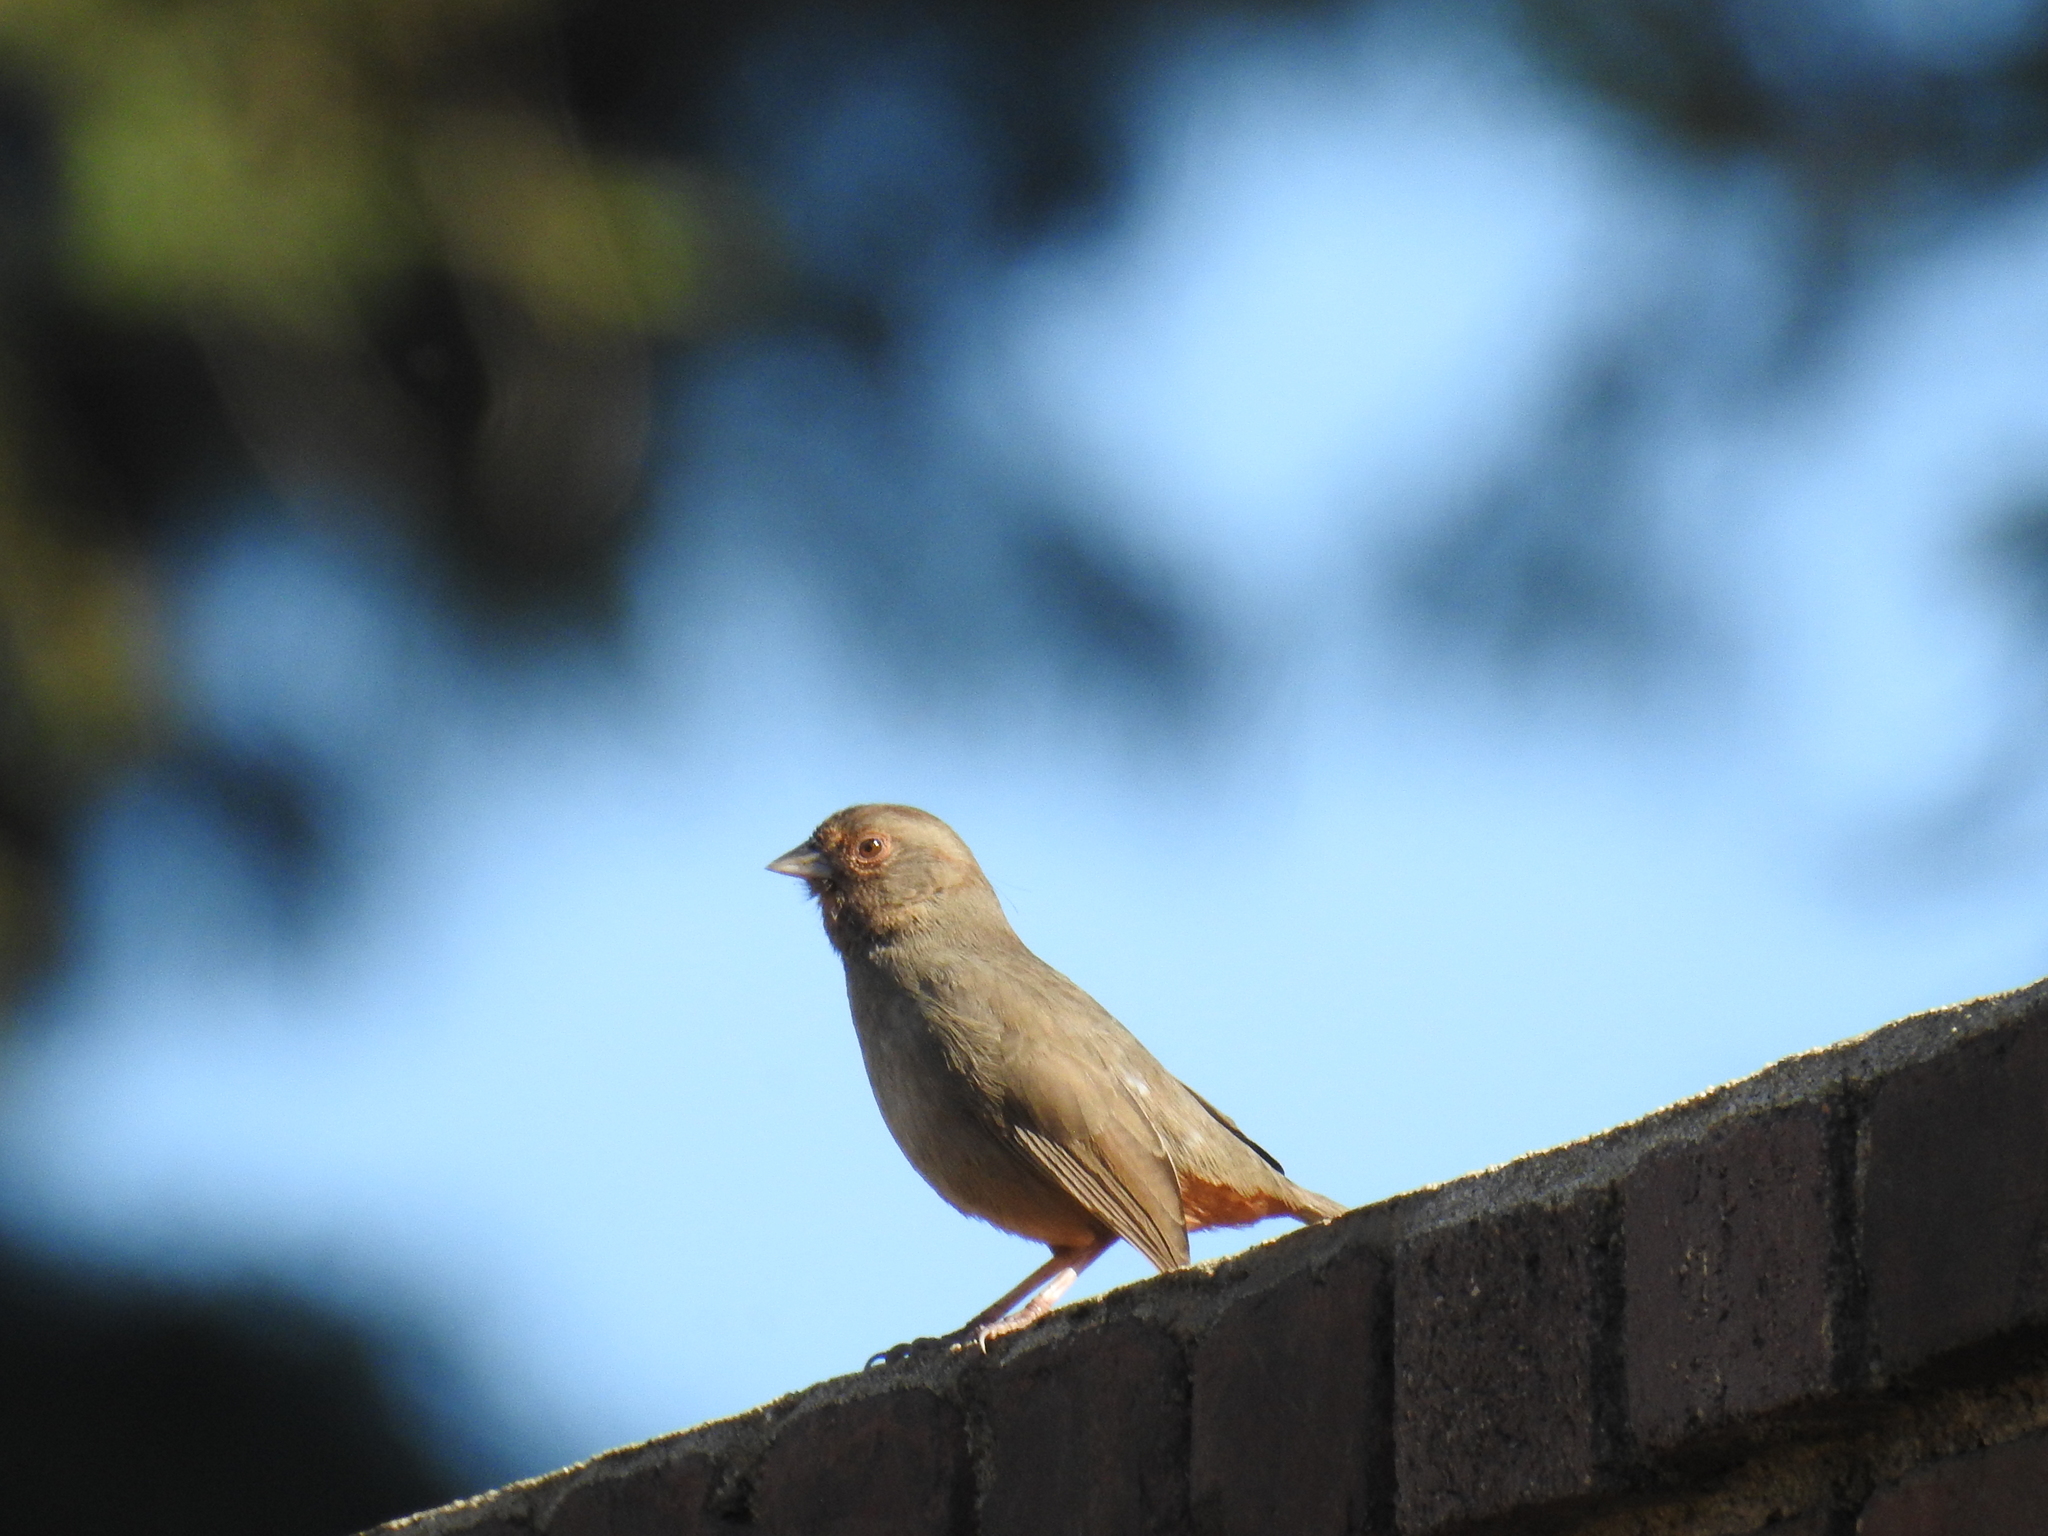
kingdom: Animalia
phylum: Chordata
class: Aves
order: Passeriformes
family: Passerellidae
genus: Melozone
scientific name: Melozone crissalis
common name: California towhee
